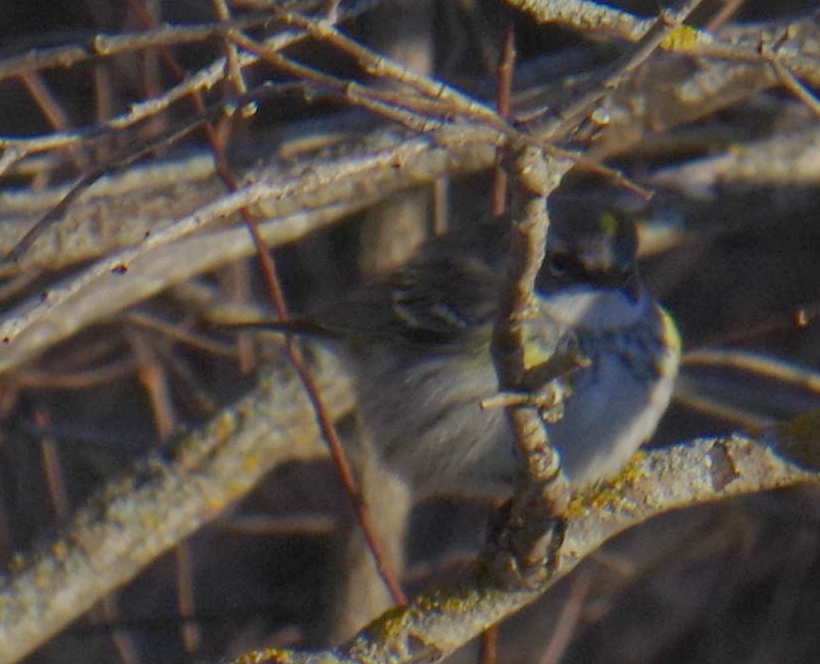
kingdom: Animalia
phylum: Chordata
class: Aves
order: Passeriformes
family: Parulidae
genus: Setophaga
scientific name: Setophaga coronata
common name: Myrtle warbler
